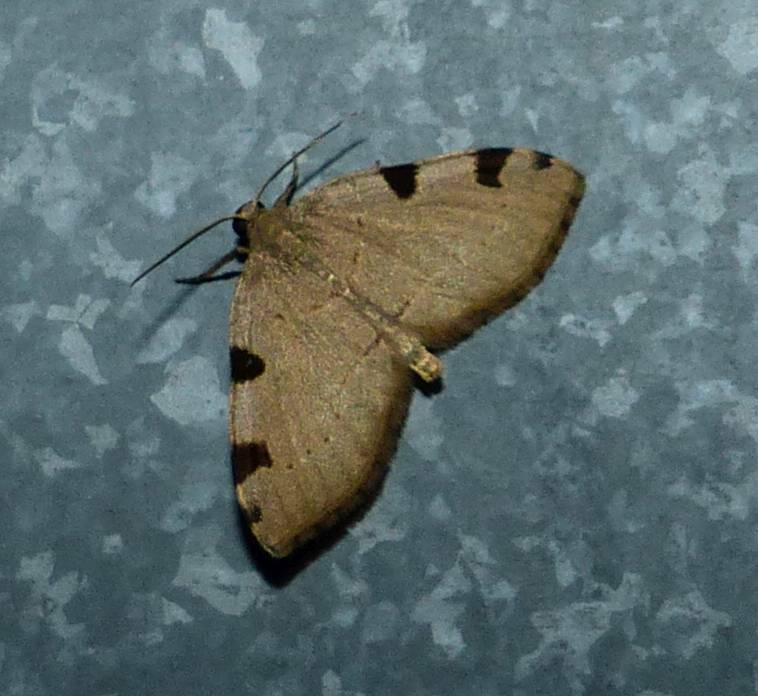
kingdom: Animalia
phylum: Arthropoda
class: Insecta
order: Lepidoptera
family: Geometridae
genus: Heterophleps
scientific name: Heterophleps triguttaria
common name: Three-spotted fillip
